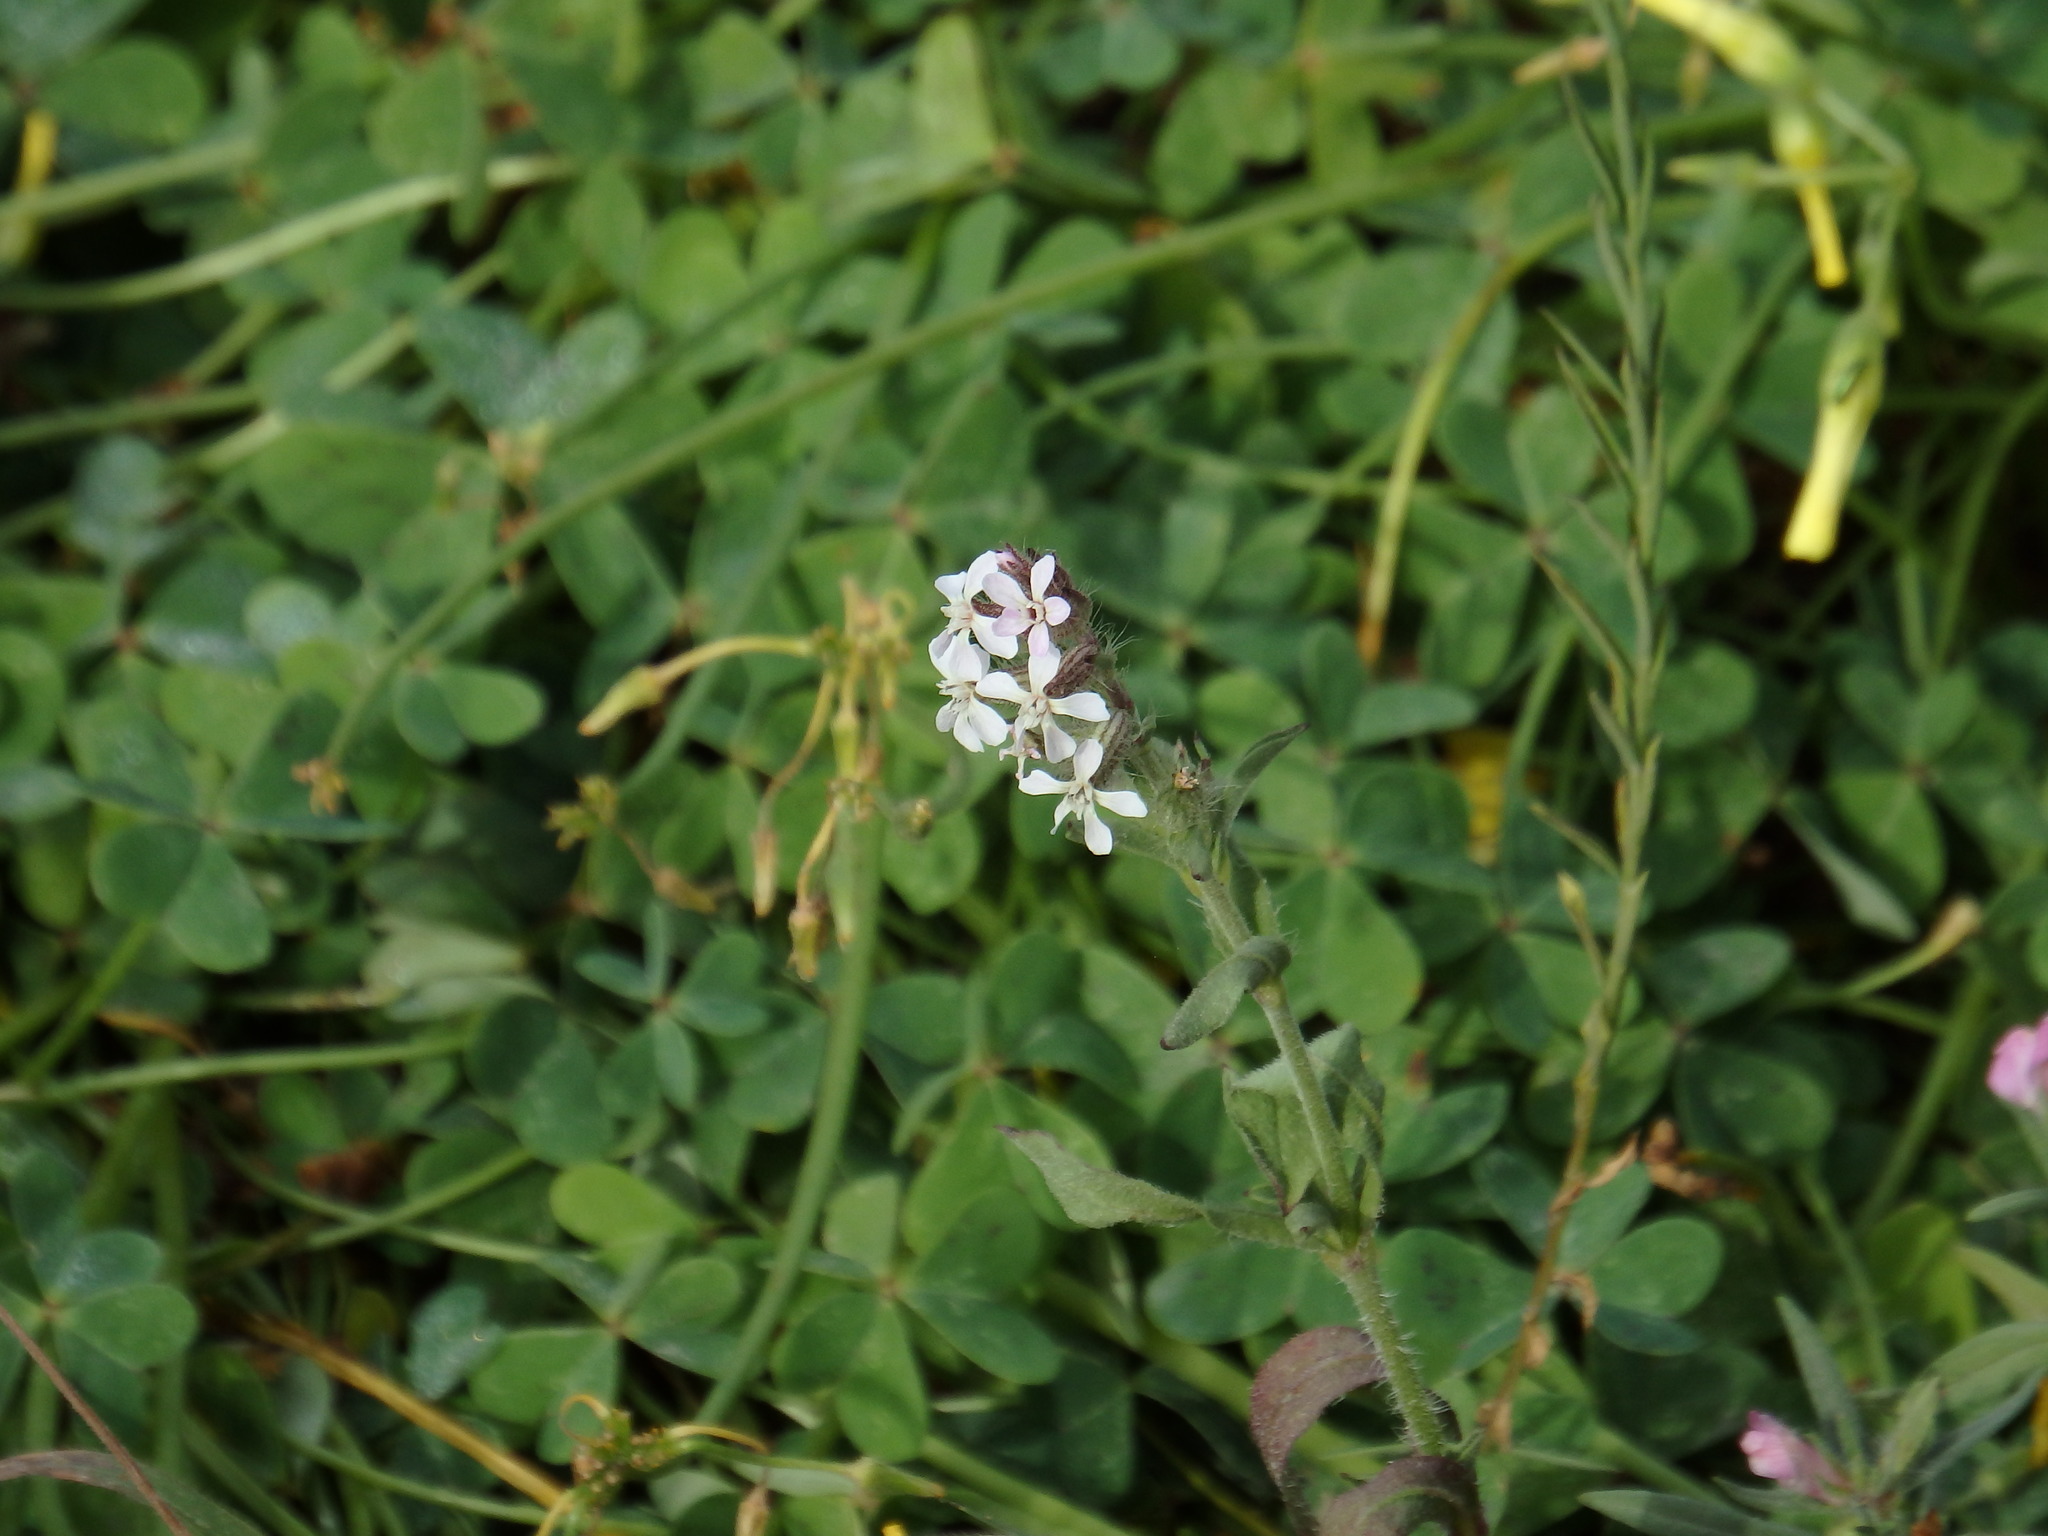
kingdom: Plantae
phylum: Tracheophyta
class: Magnoliopsida
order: Caryophyllales
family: Caryophyllaceae
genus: Silene
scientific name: Silene gallica
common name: Small-flowered catchfly
